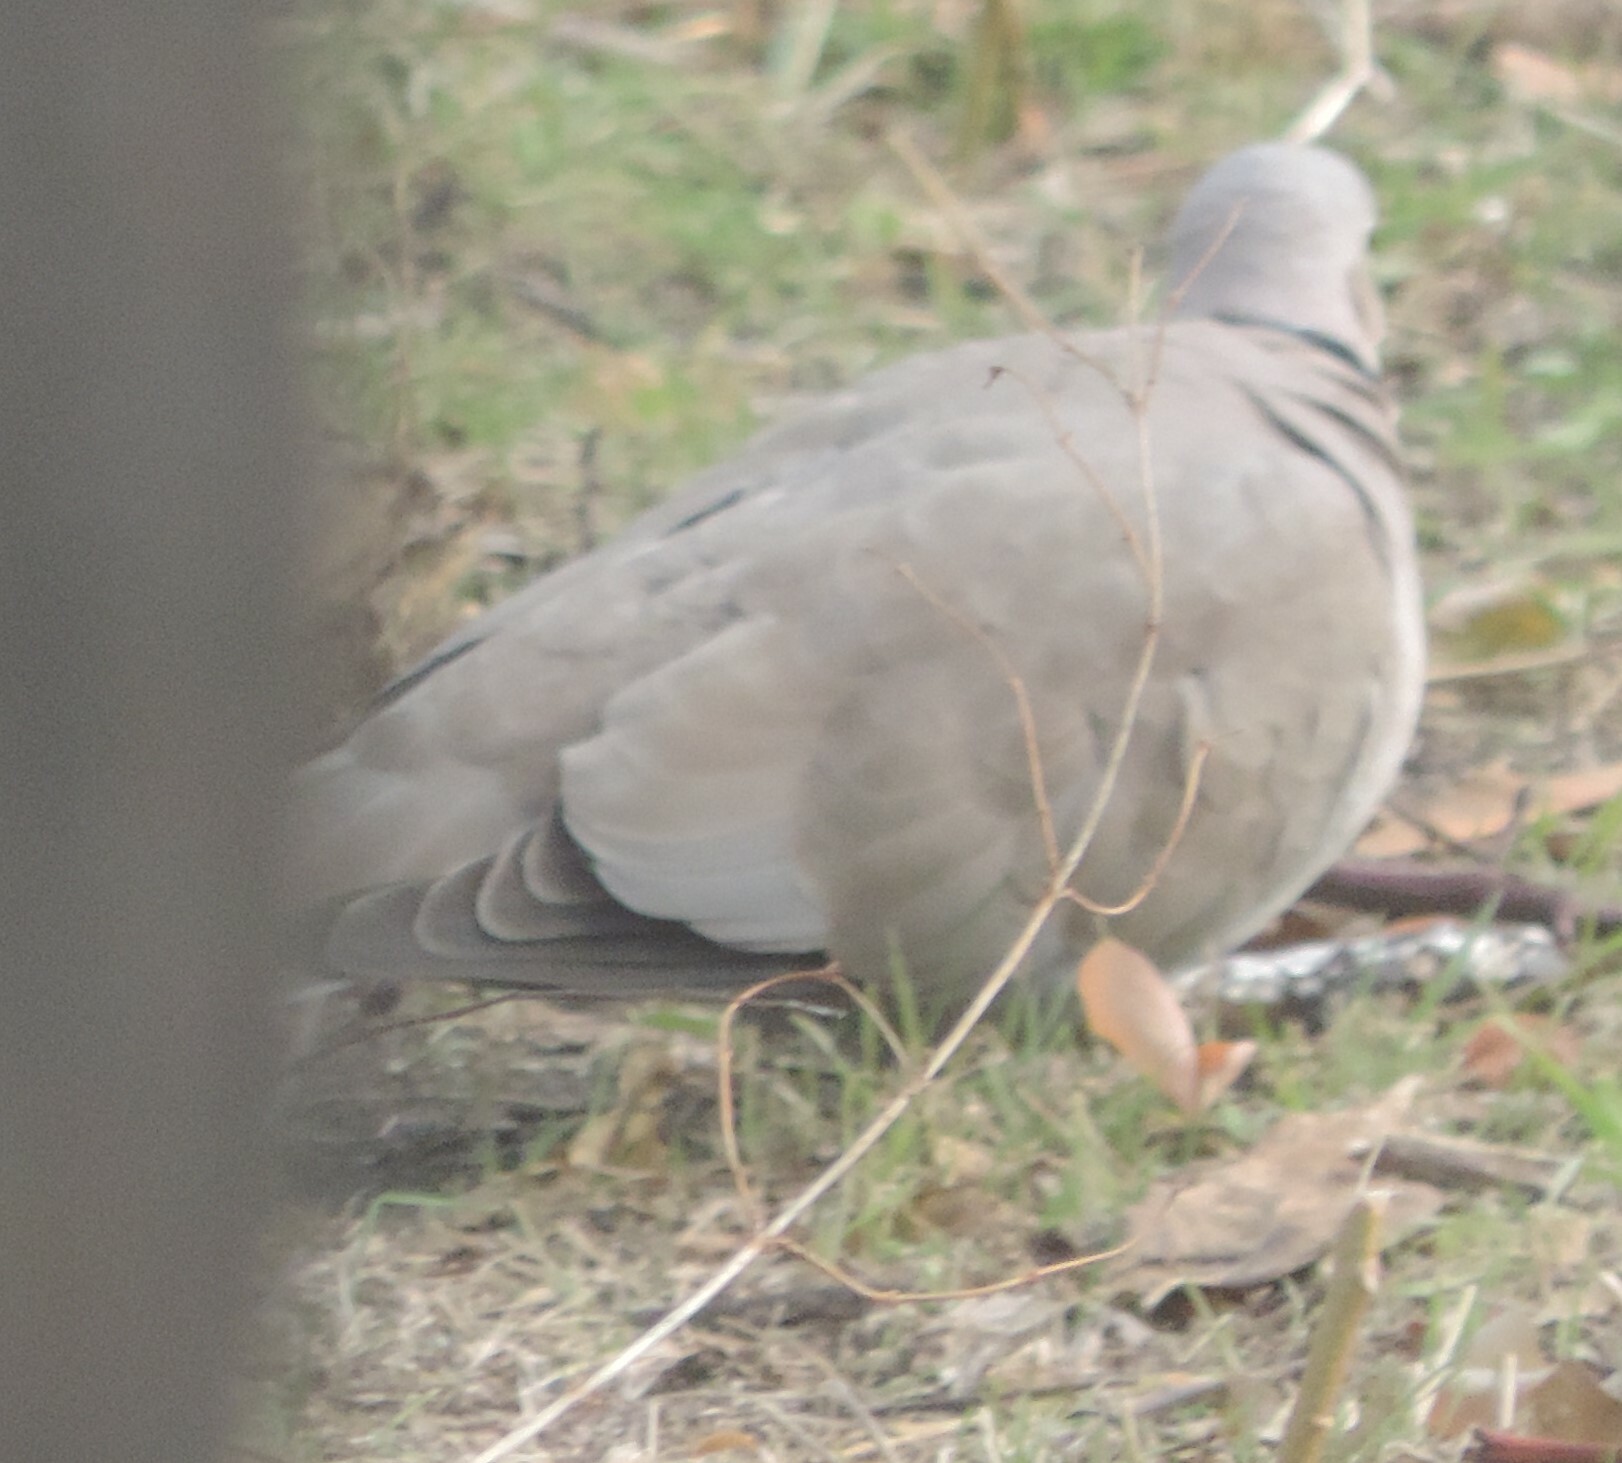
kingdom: Animalia
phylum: Chordata
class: Aves
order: Columbiformes
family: Columbidae
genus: Streptopelia
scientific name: Streptopelia decaocto
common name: Eurasian collared dove
